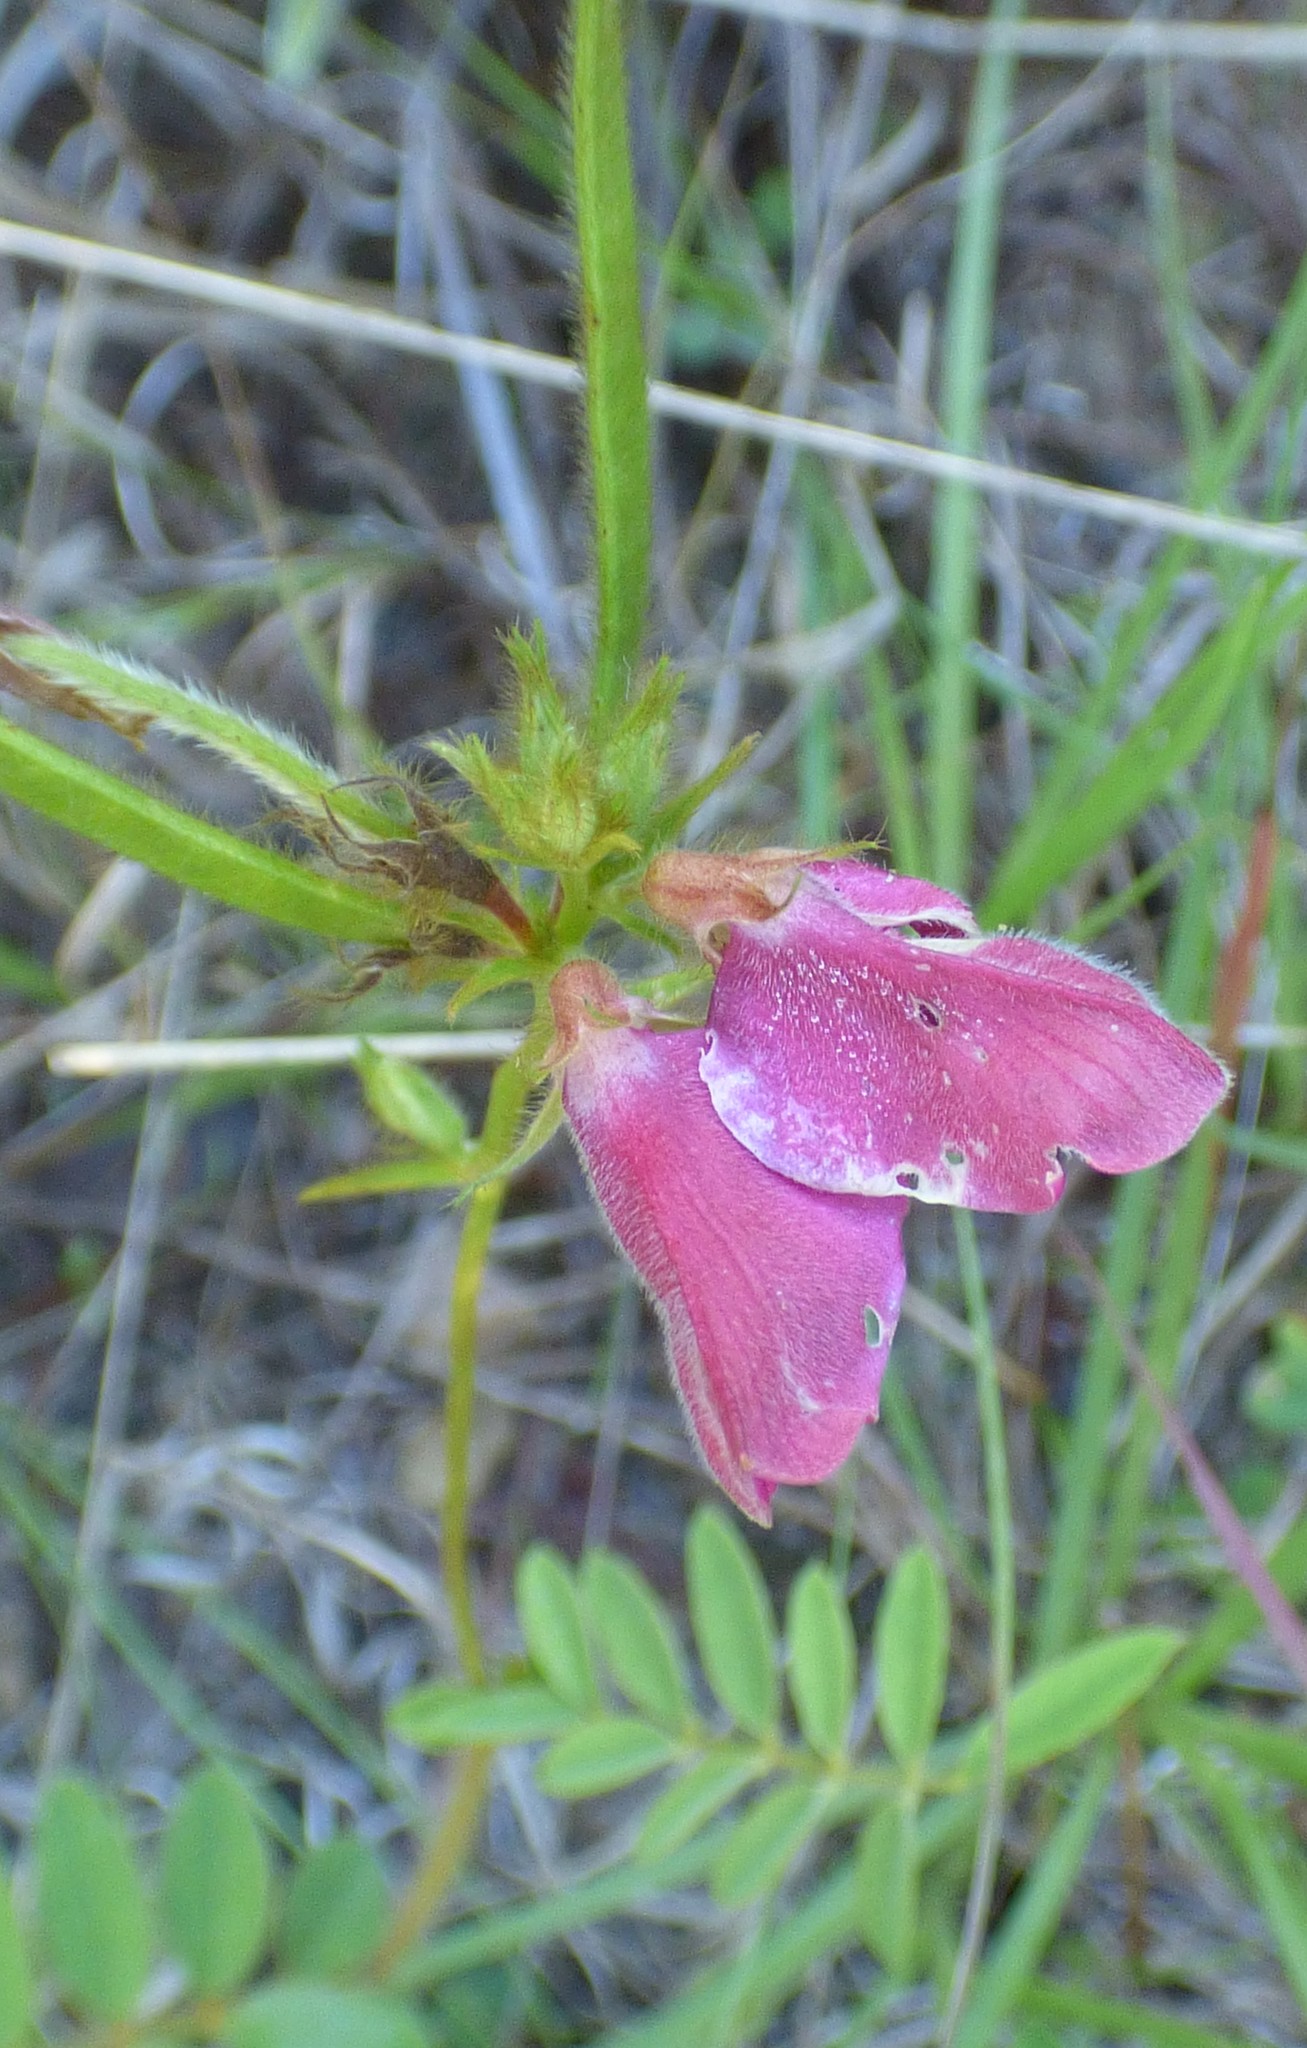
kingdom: Plantae
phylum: Tracheophyta
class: Magnoliopsida
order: Fabales
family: Fabaceae
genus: Tephrosia
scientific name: Tephrosia spicata
